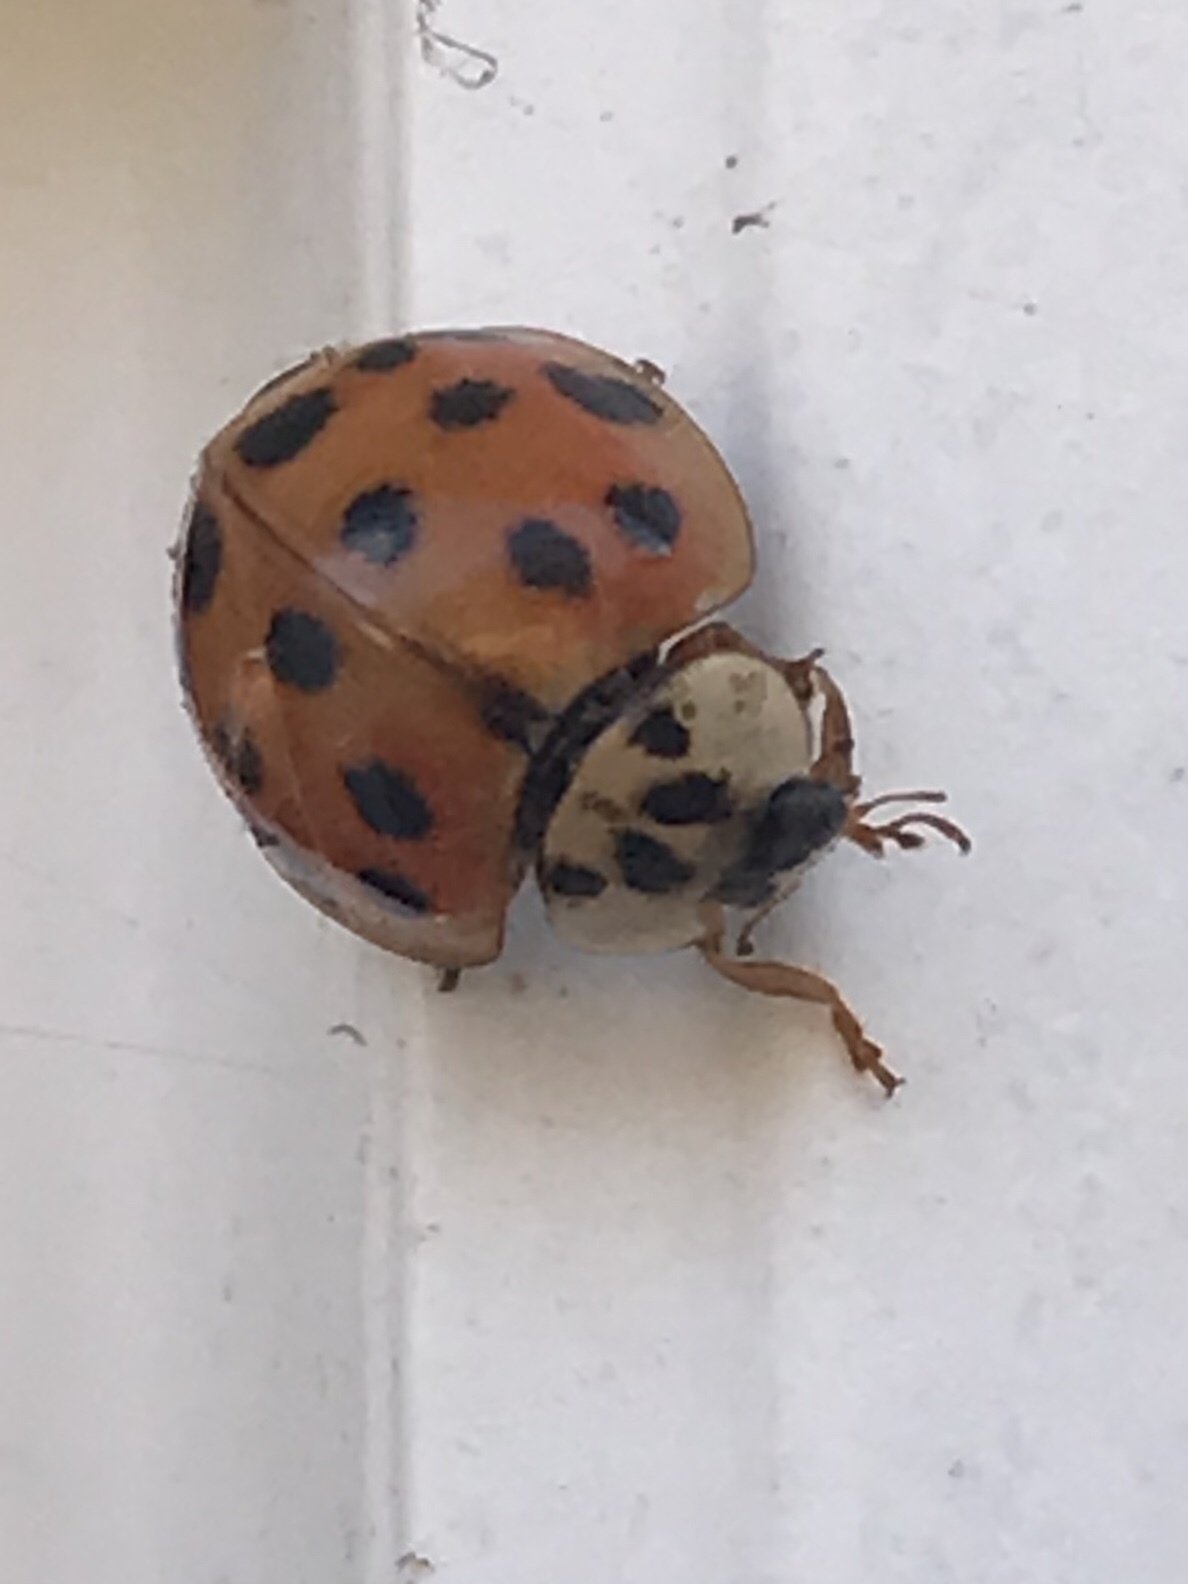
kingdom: Animalia
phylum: Arthropoda
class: Insecta
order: Coleoptera
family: Coccinellidae
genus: Harmonia
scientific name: Harmonia axyridis
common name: Harlequin ladybird
